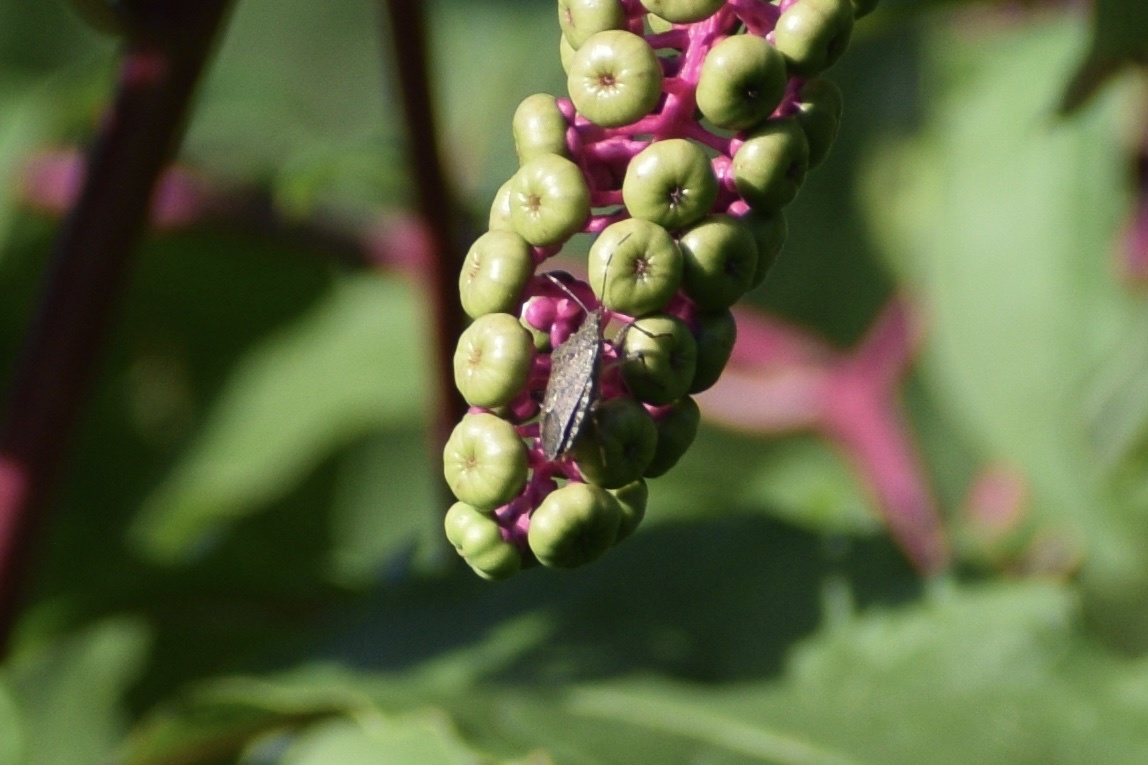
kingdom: Animalia
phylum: Arthropoda
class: Insecta
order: Hemiptera
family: Pentatomidae
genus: Halyomorpha
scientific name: Halyomorpha halys
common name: Brown marmorated stink bug
